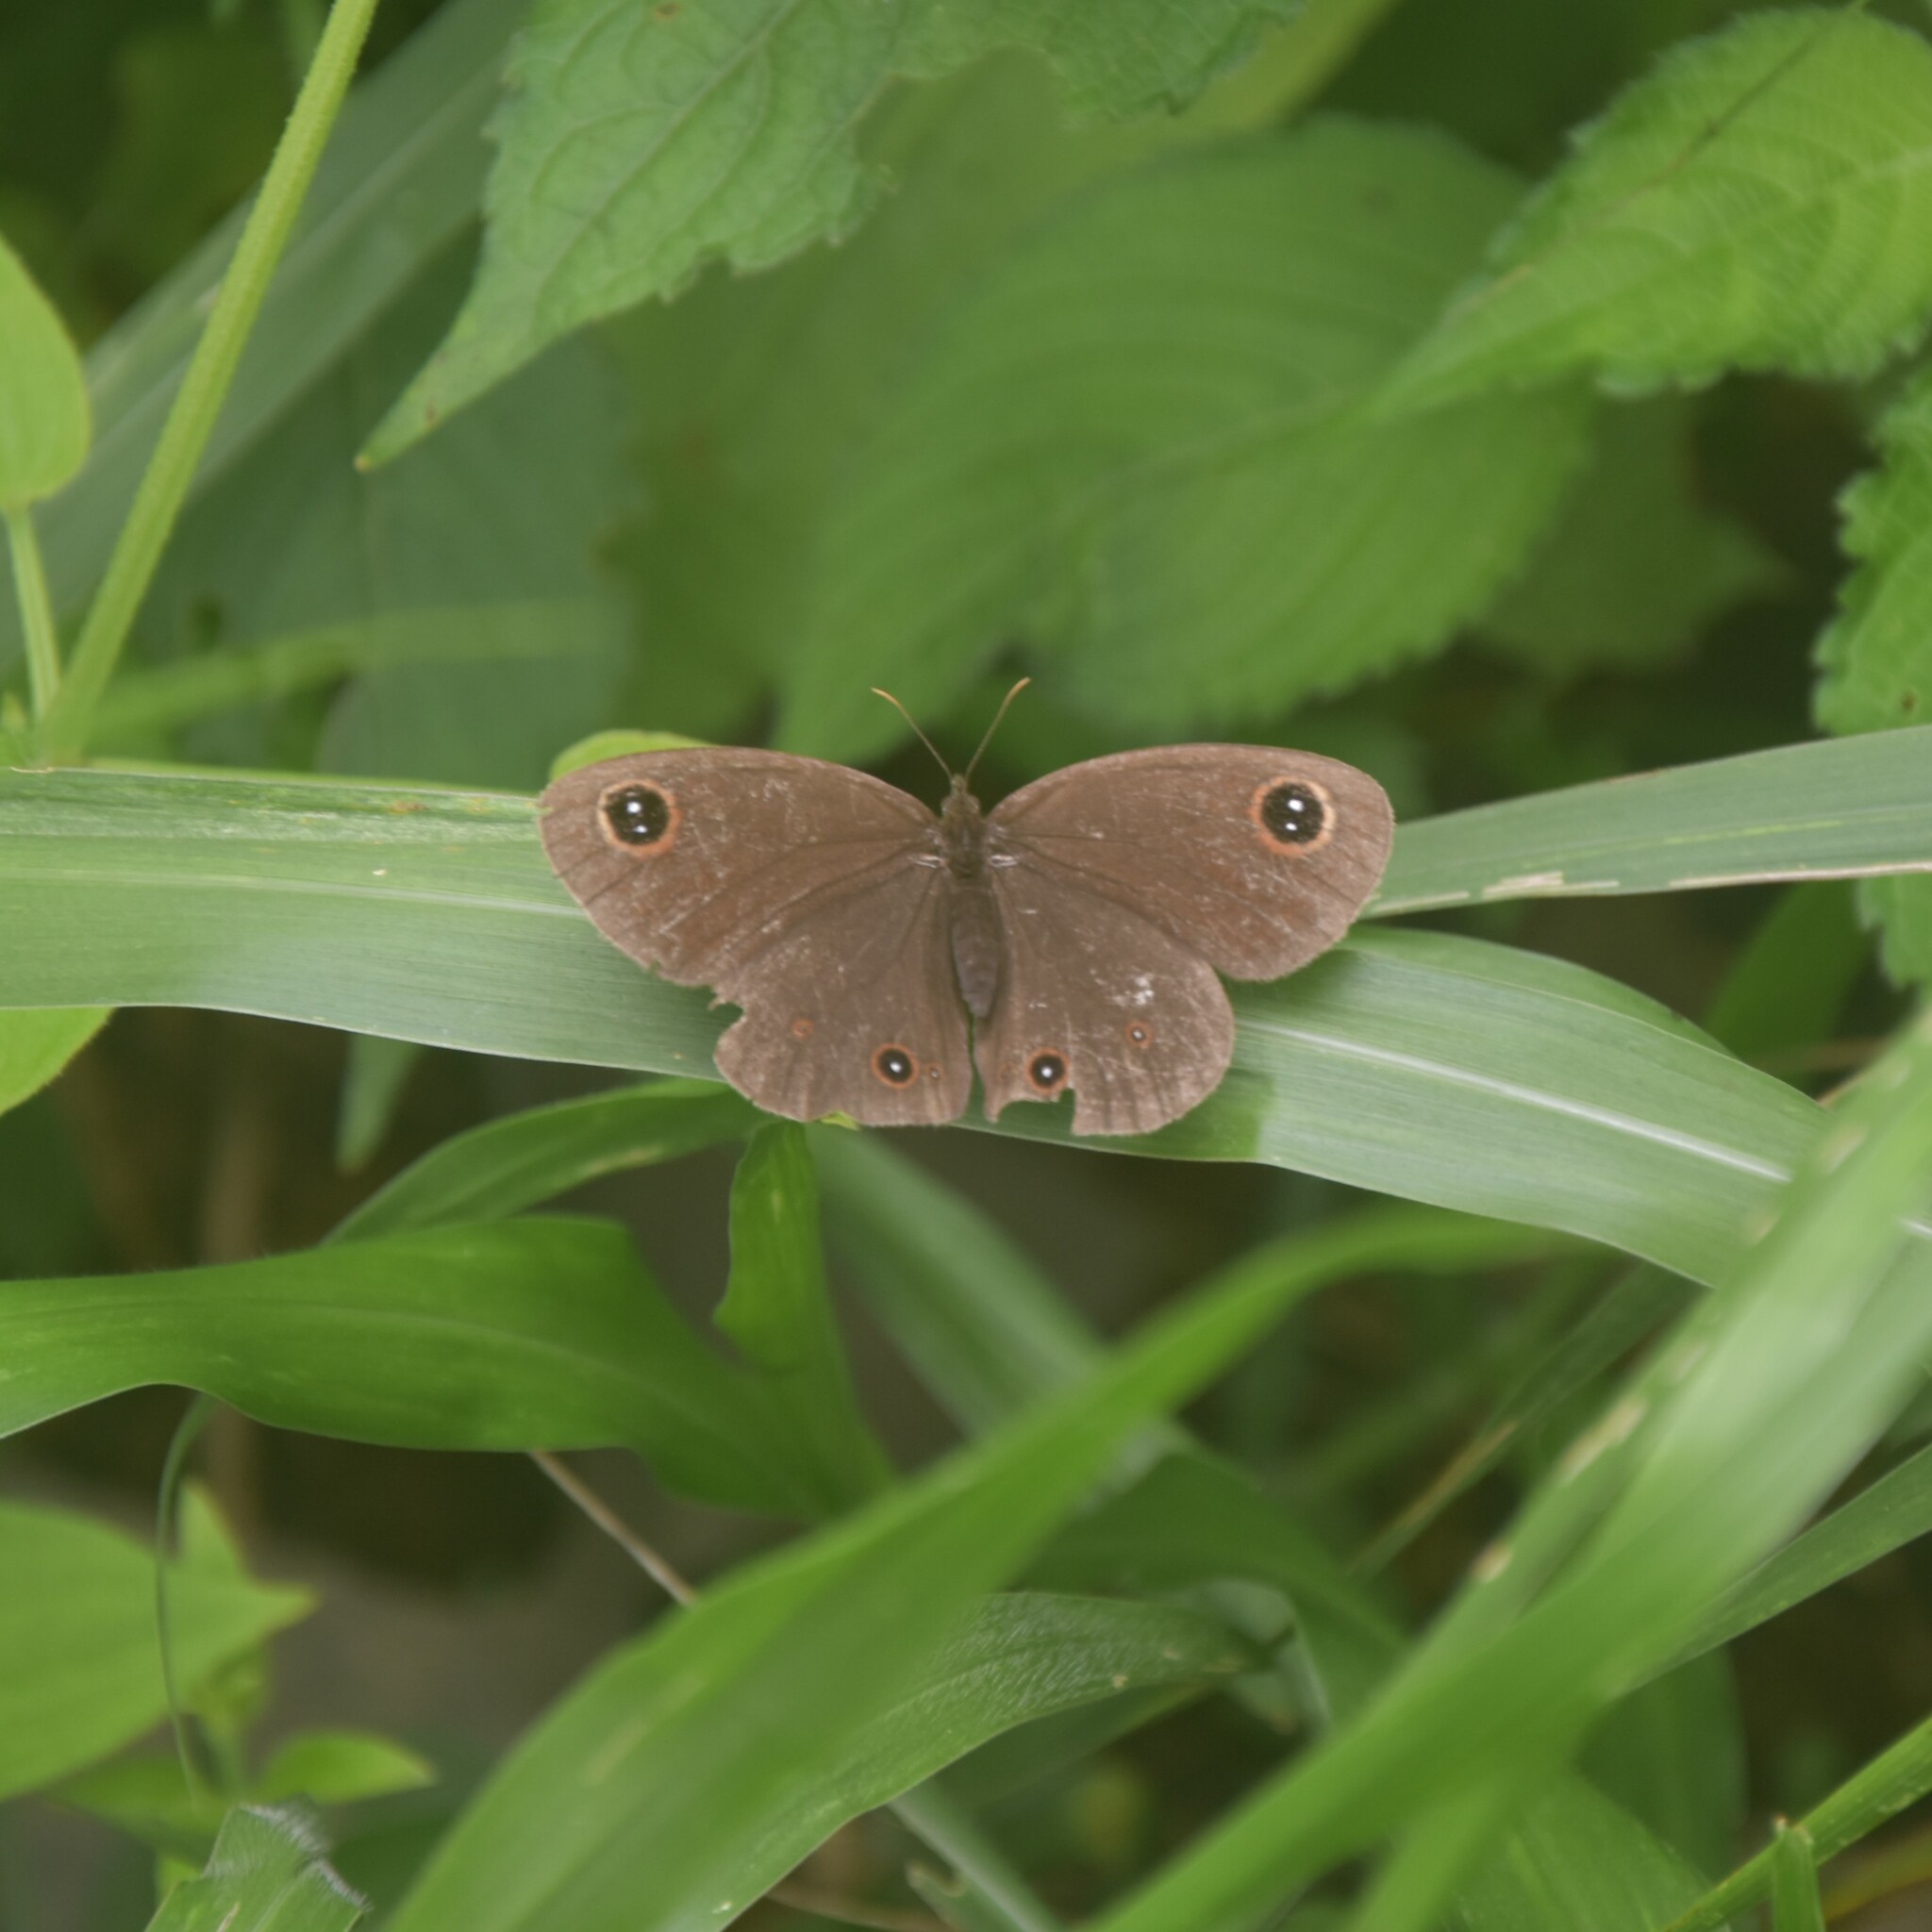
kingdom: Animalia
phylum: Arthropoda
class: Insecta
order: Lepidoptera
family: Nymphalidae
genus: Callerebia
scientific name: Callerebia nirmala
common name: Common argus
